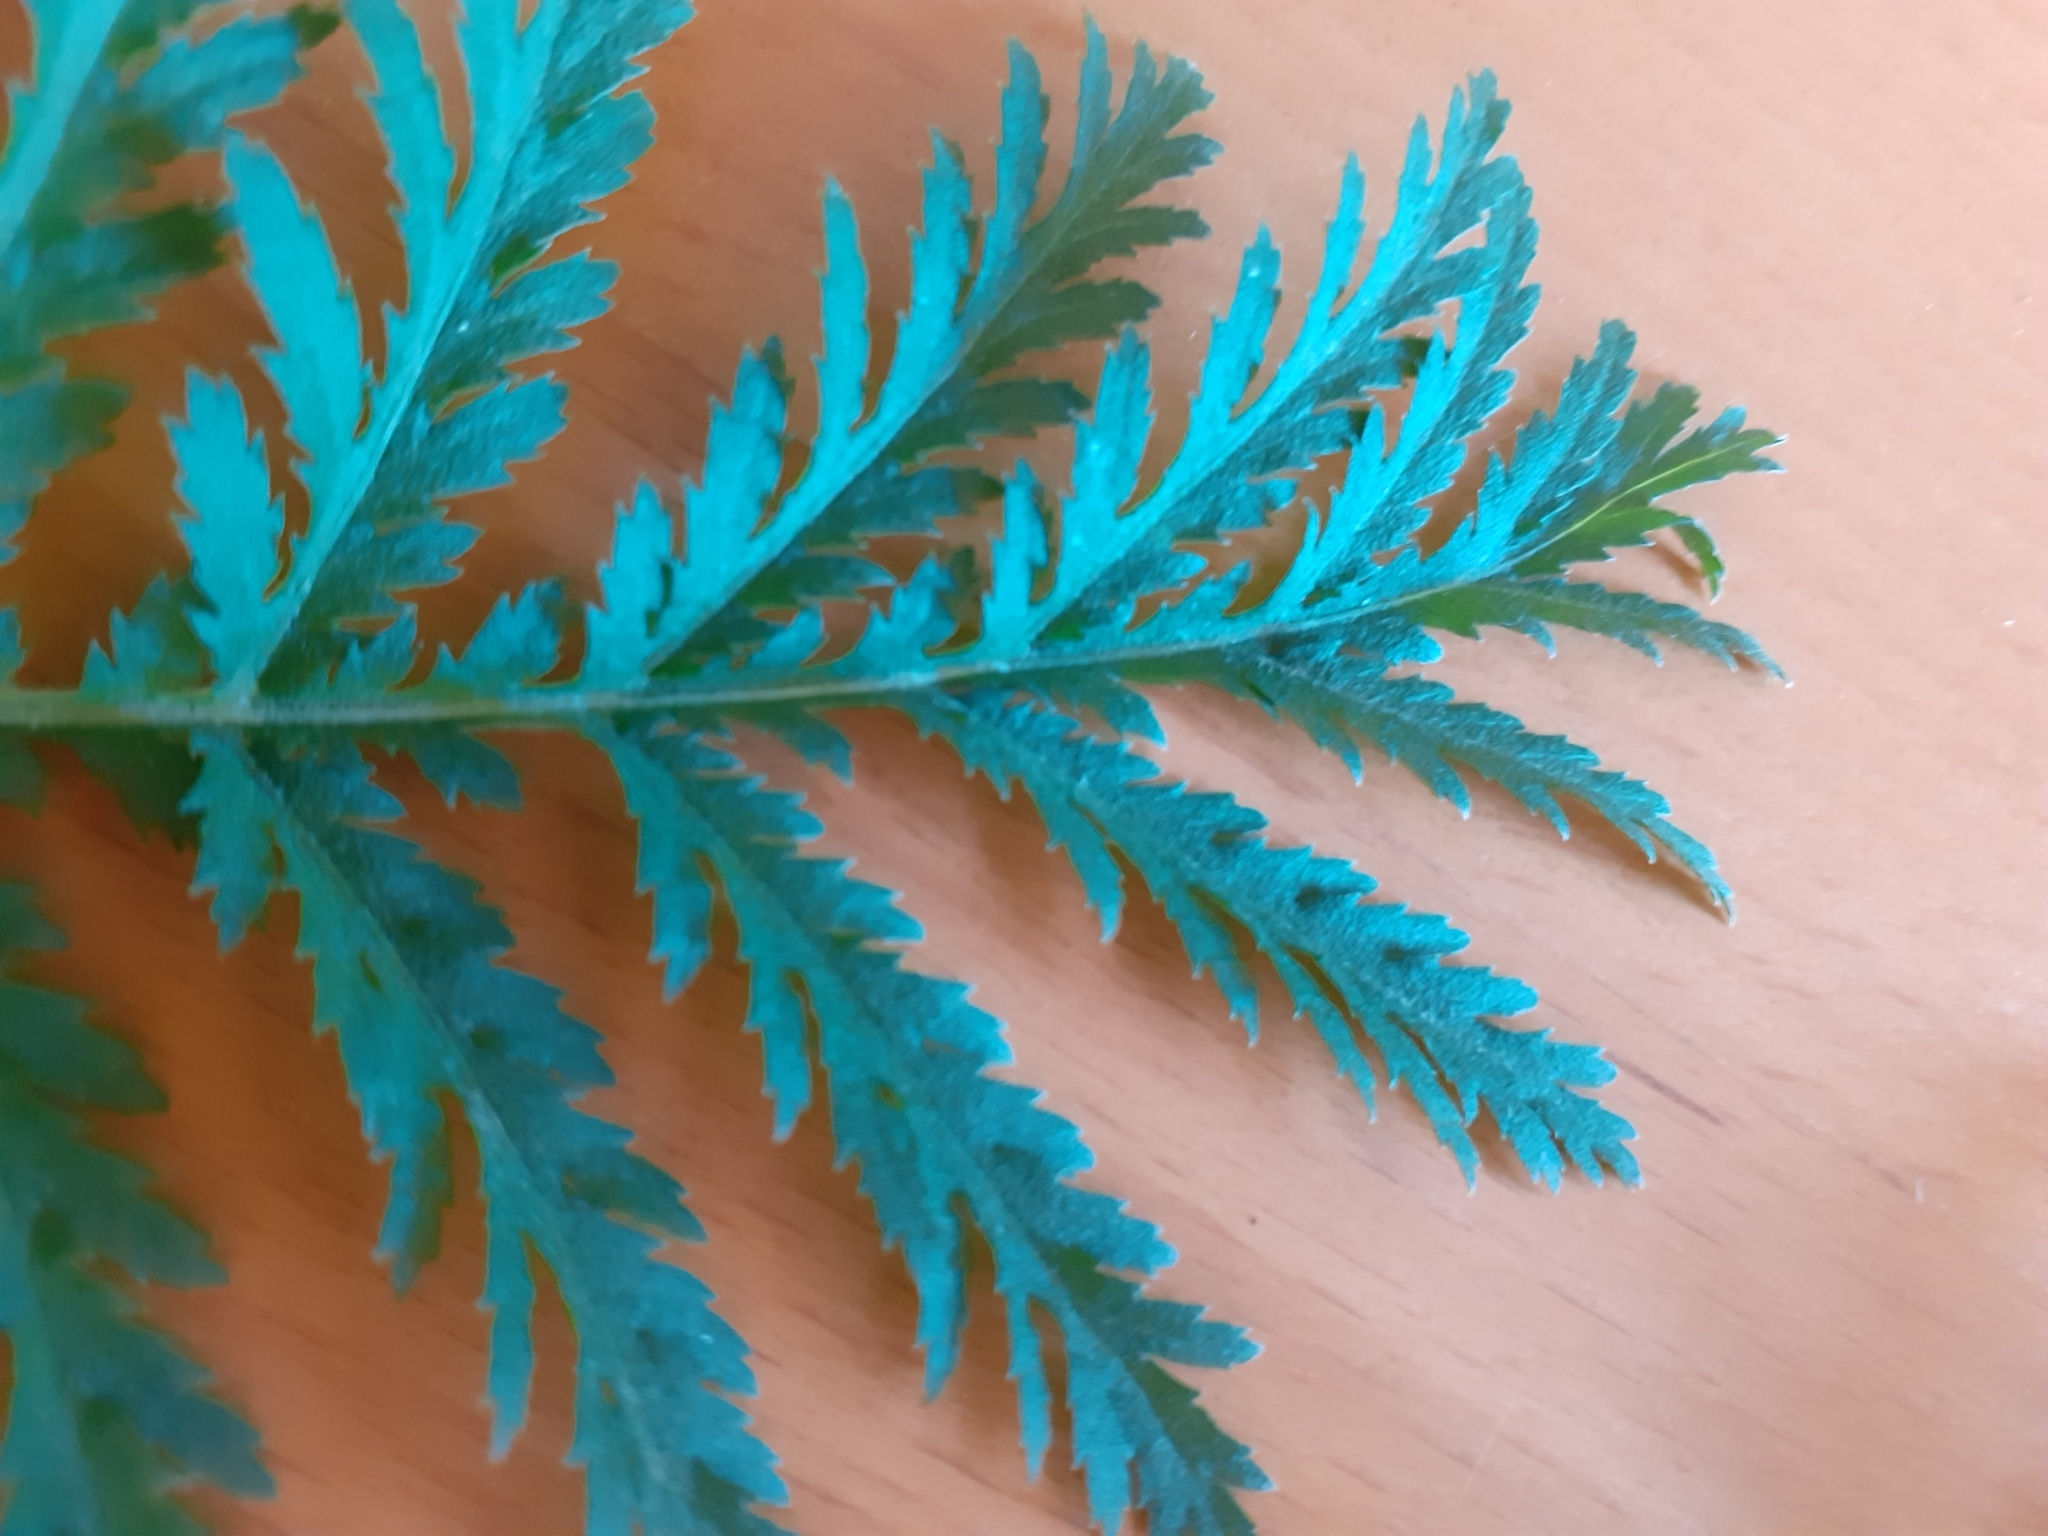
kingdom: Plantae
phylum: Tracheophyta
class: Magnoliopsida
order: Asterales
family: Asteraceae
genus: Tanacetum
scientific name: Tanacetum vulgare
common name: Common tansy
